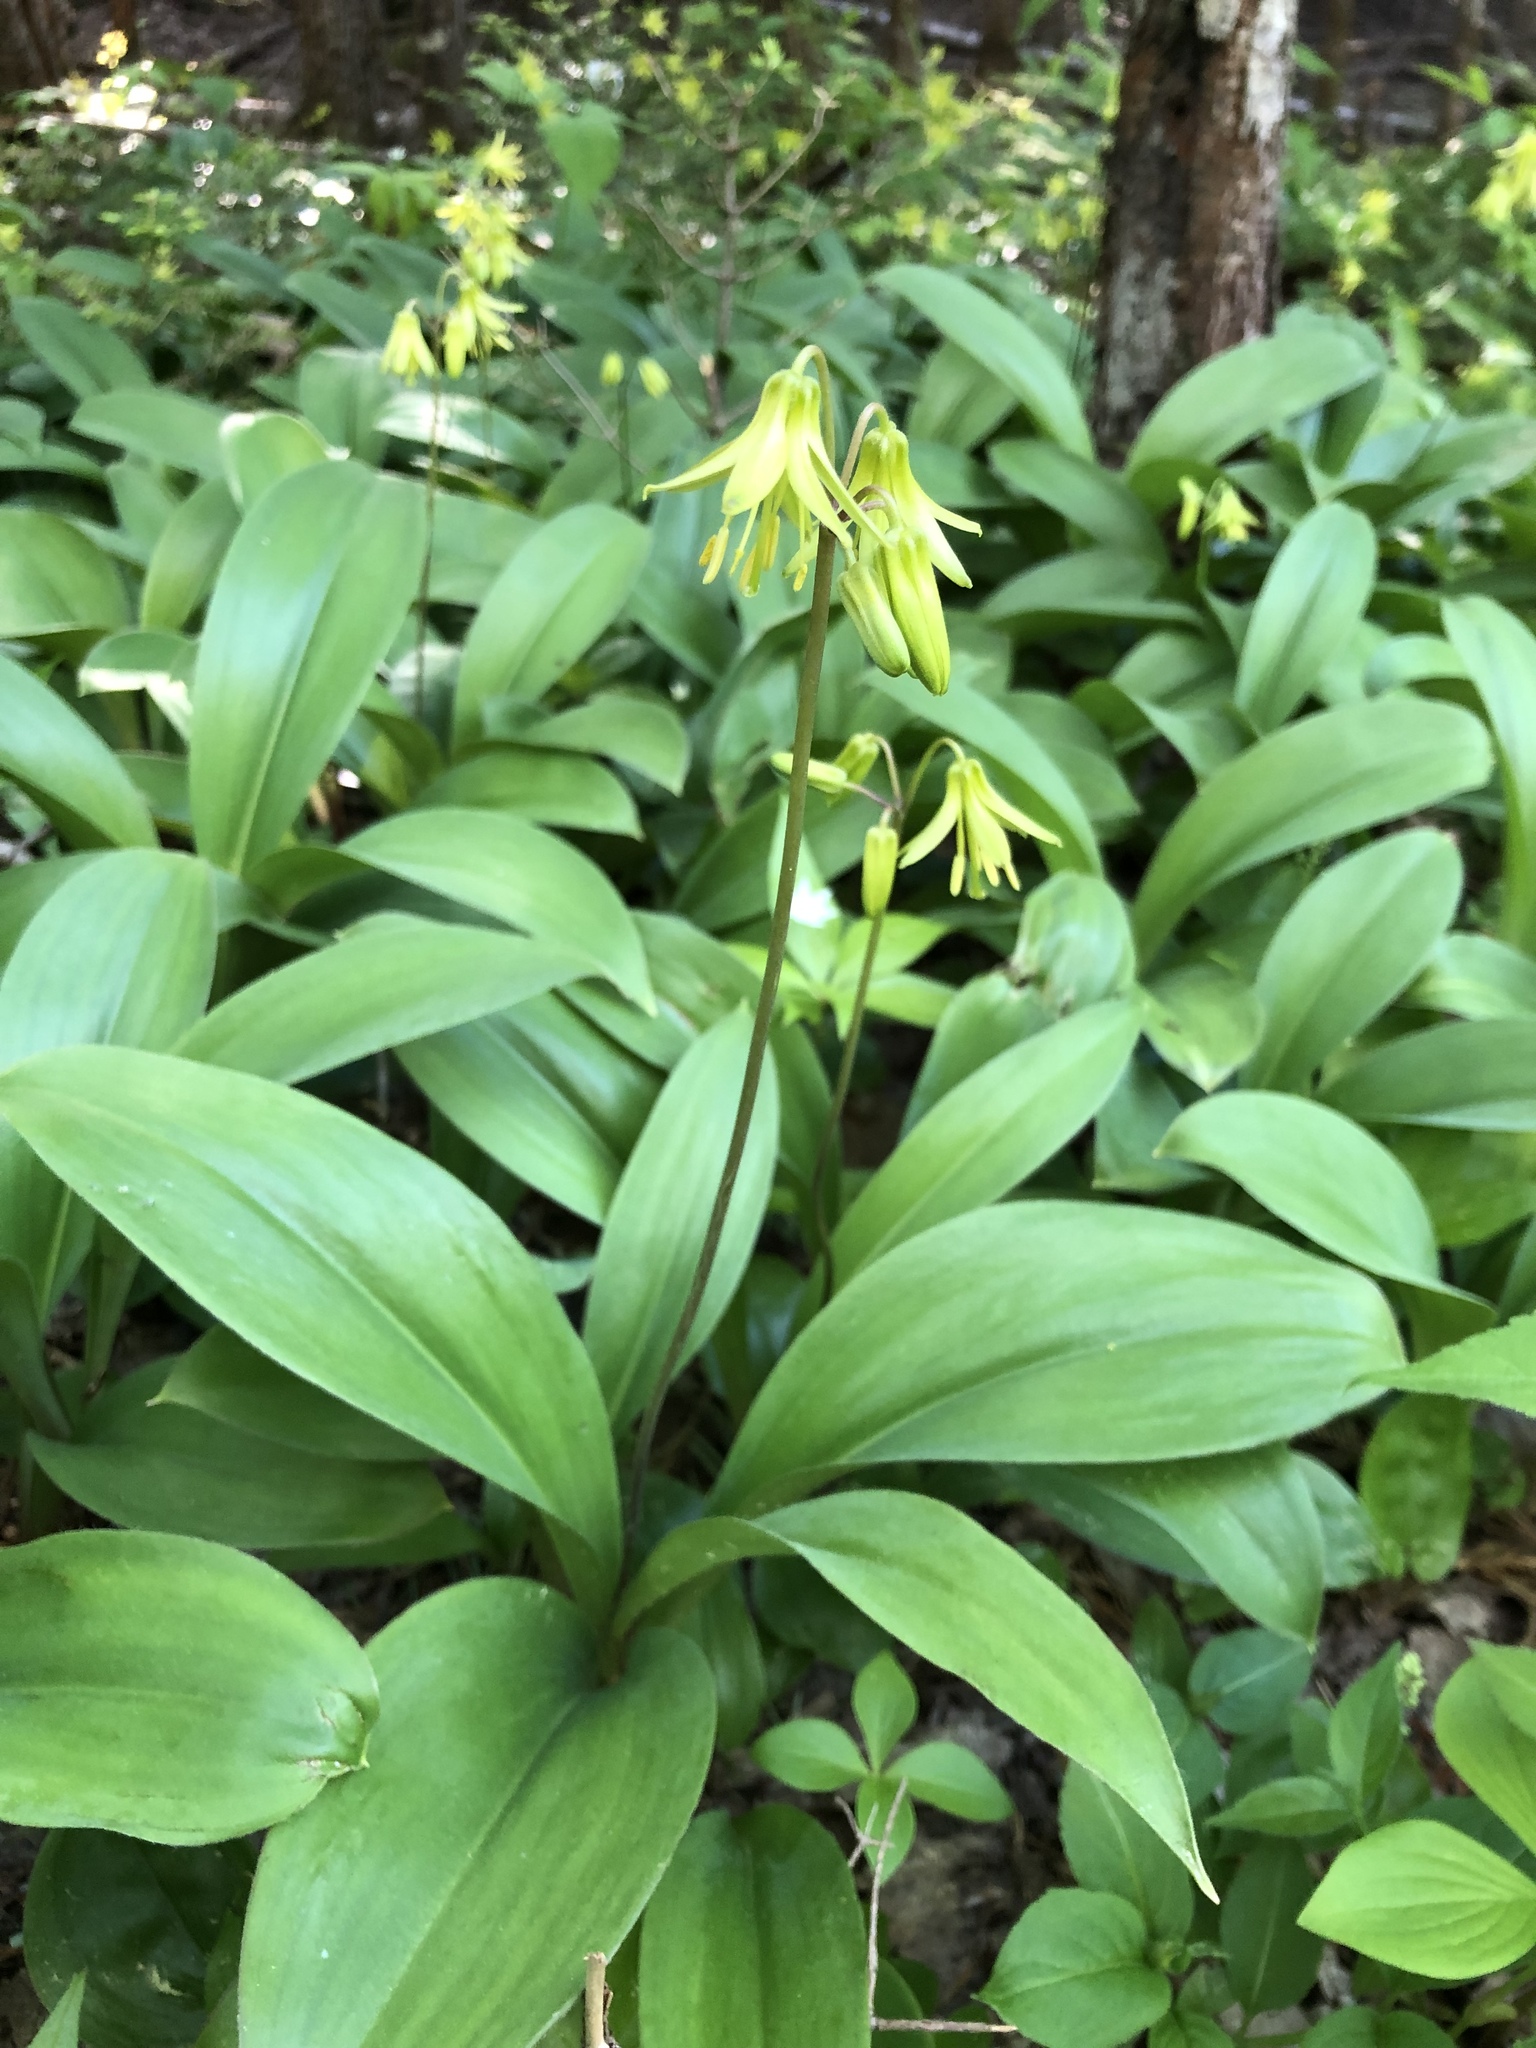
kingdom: Plantae
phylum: Tracheophyta
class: Liliopsida
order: Liliales
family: Liliaceae
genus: Clintonia
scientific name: Clintonia borealis
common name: Yellow clintonia
